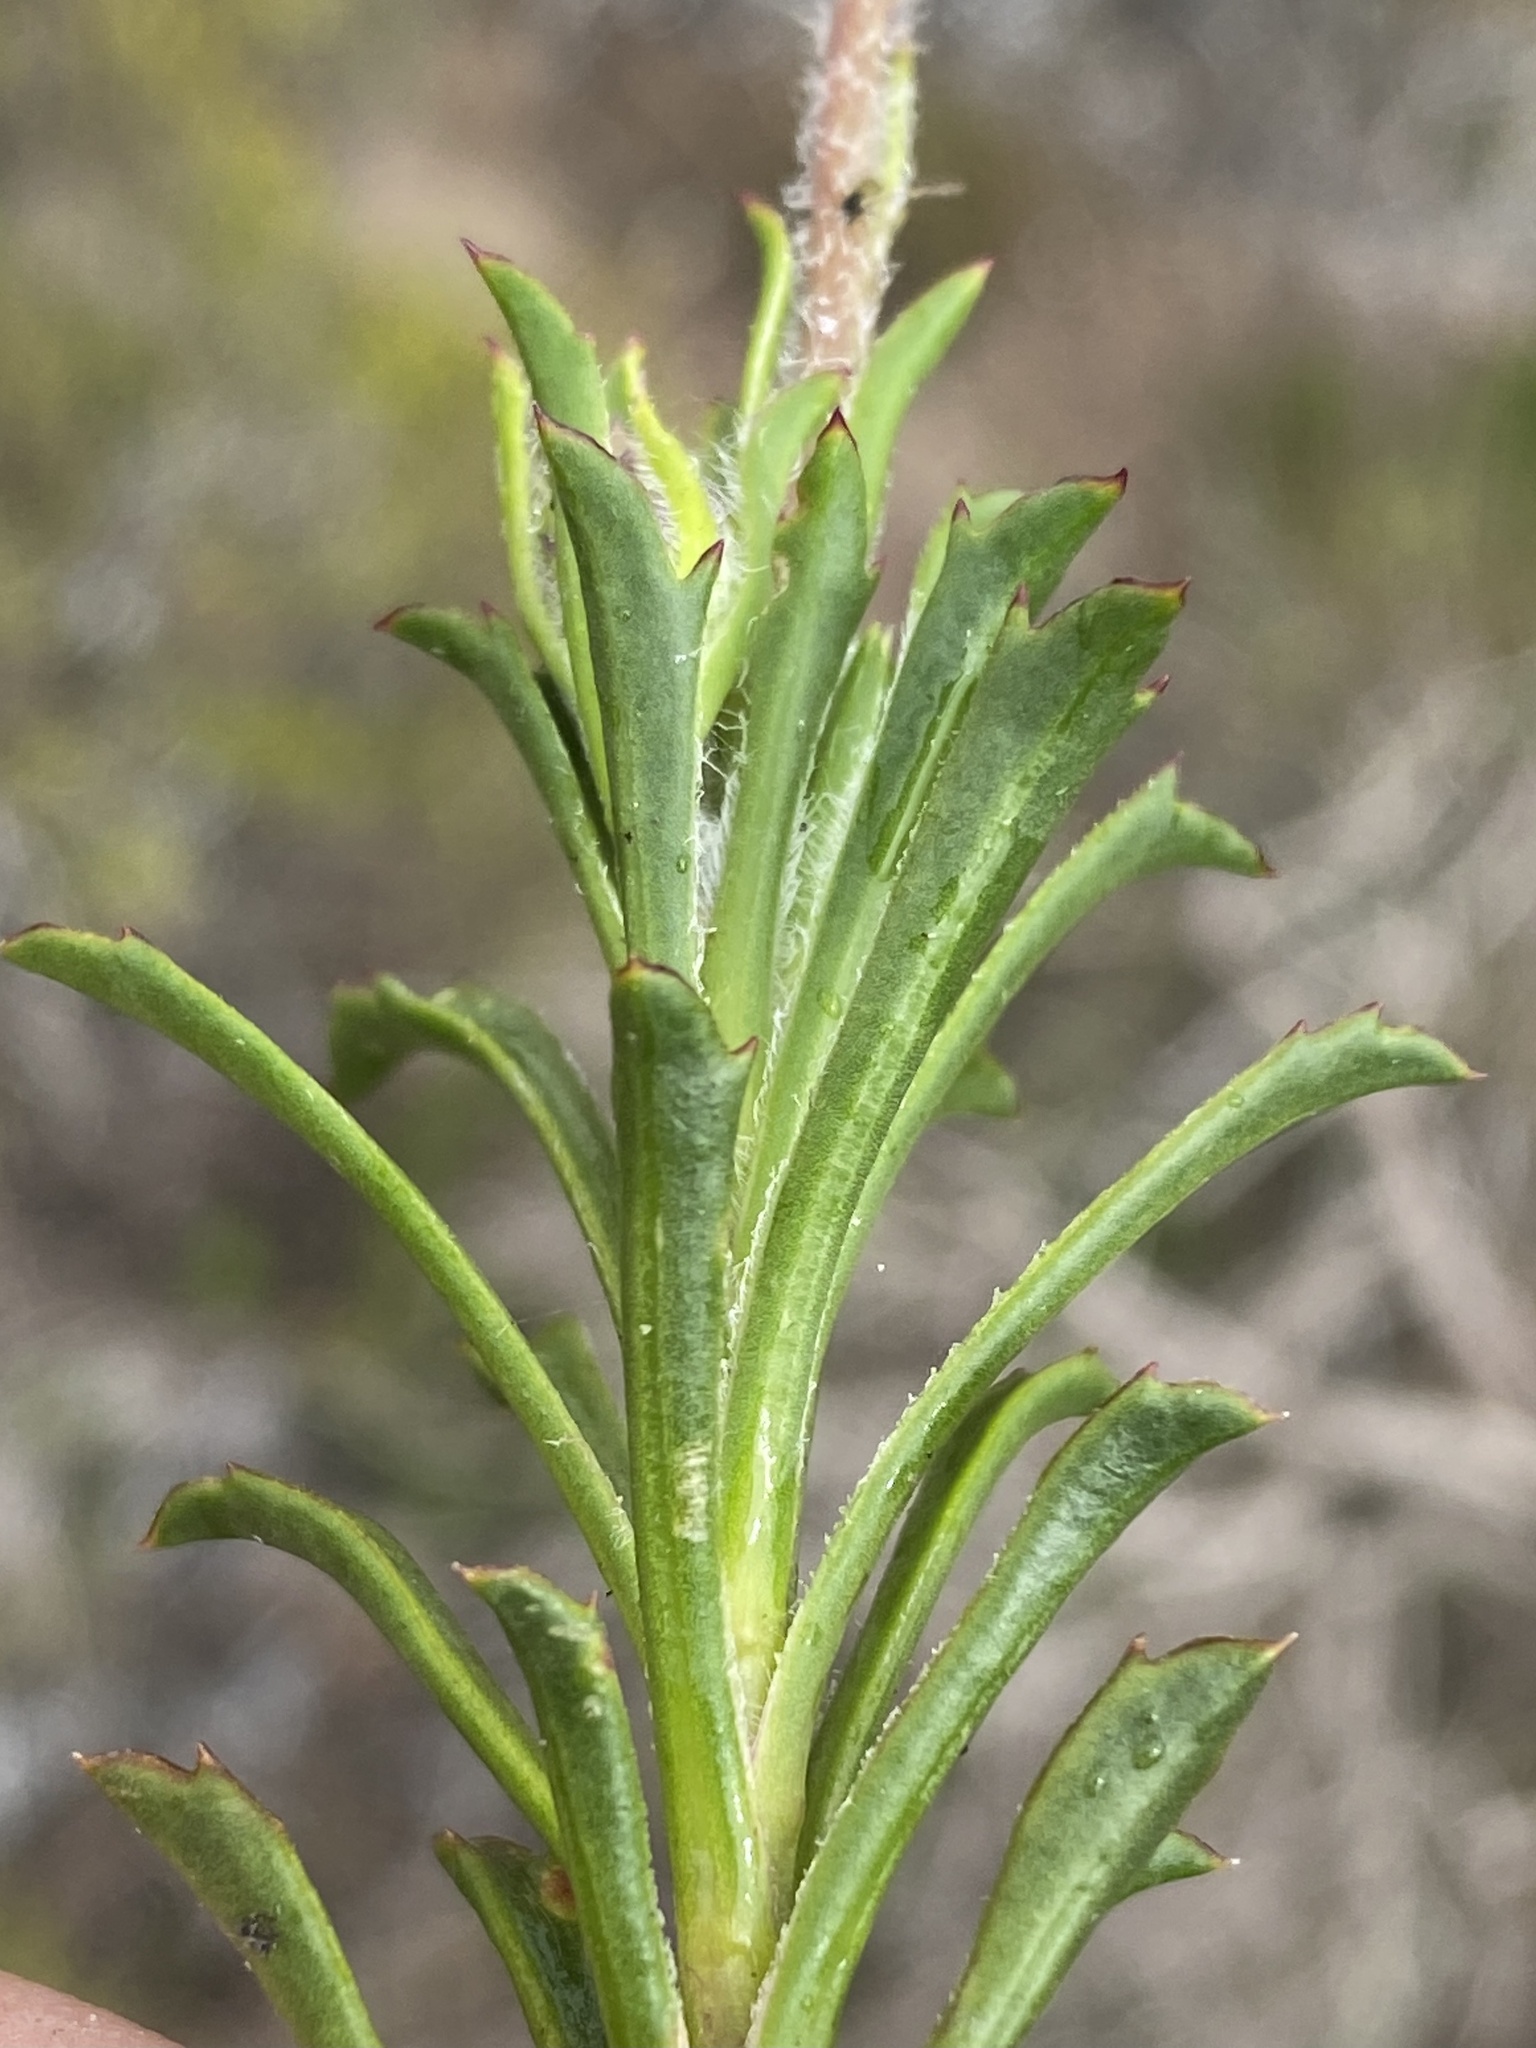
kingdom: Plantae
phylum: Tracheophyta
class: Magnoliopsida
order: Asterales
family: Asteraceae
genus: Osteospermum
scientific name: Osteospermum scariosum
